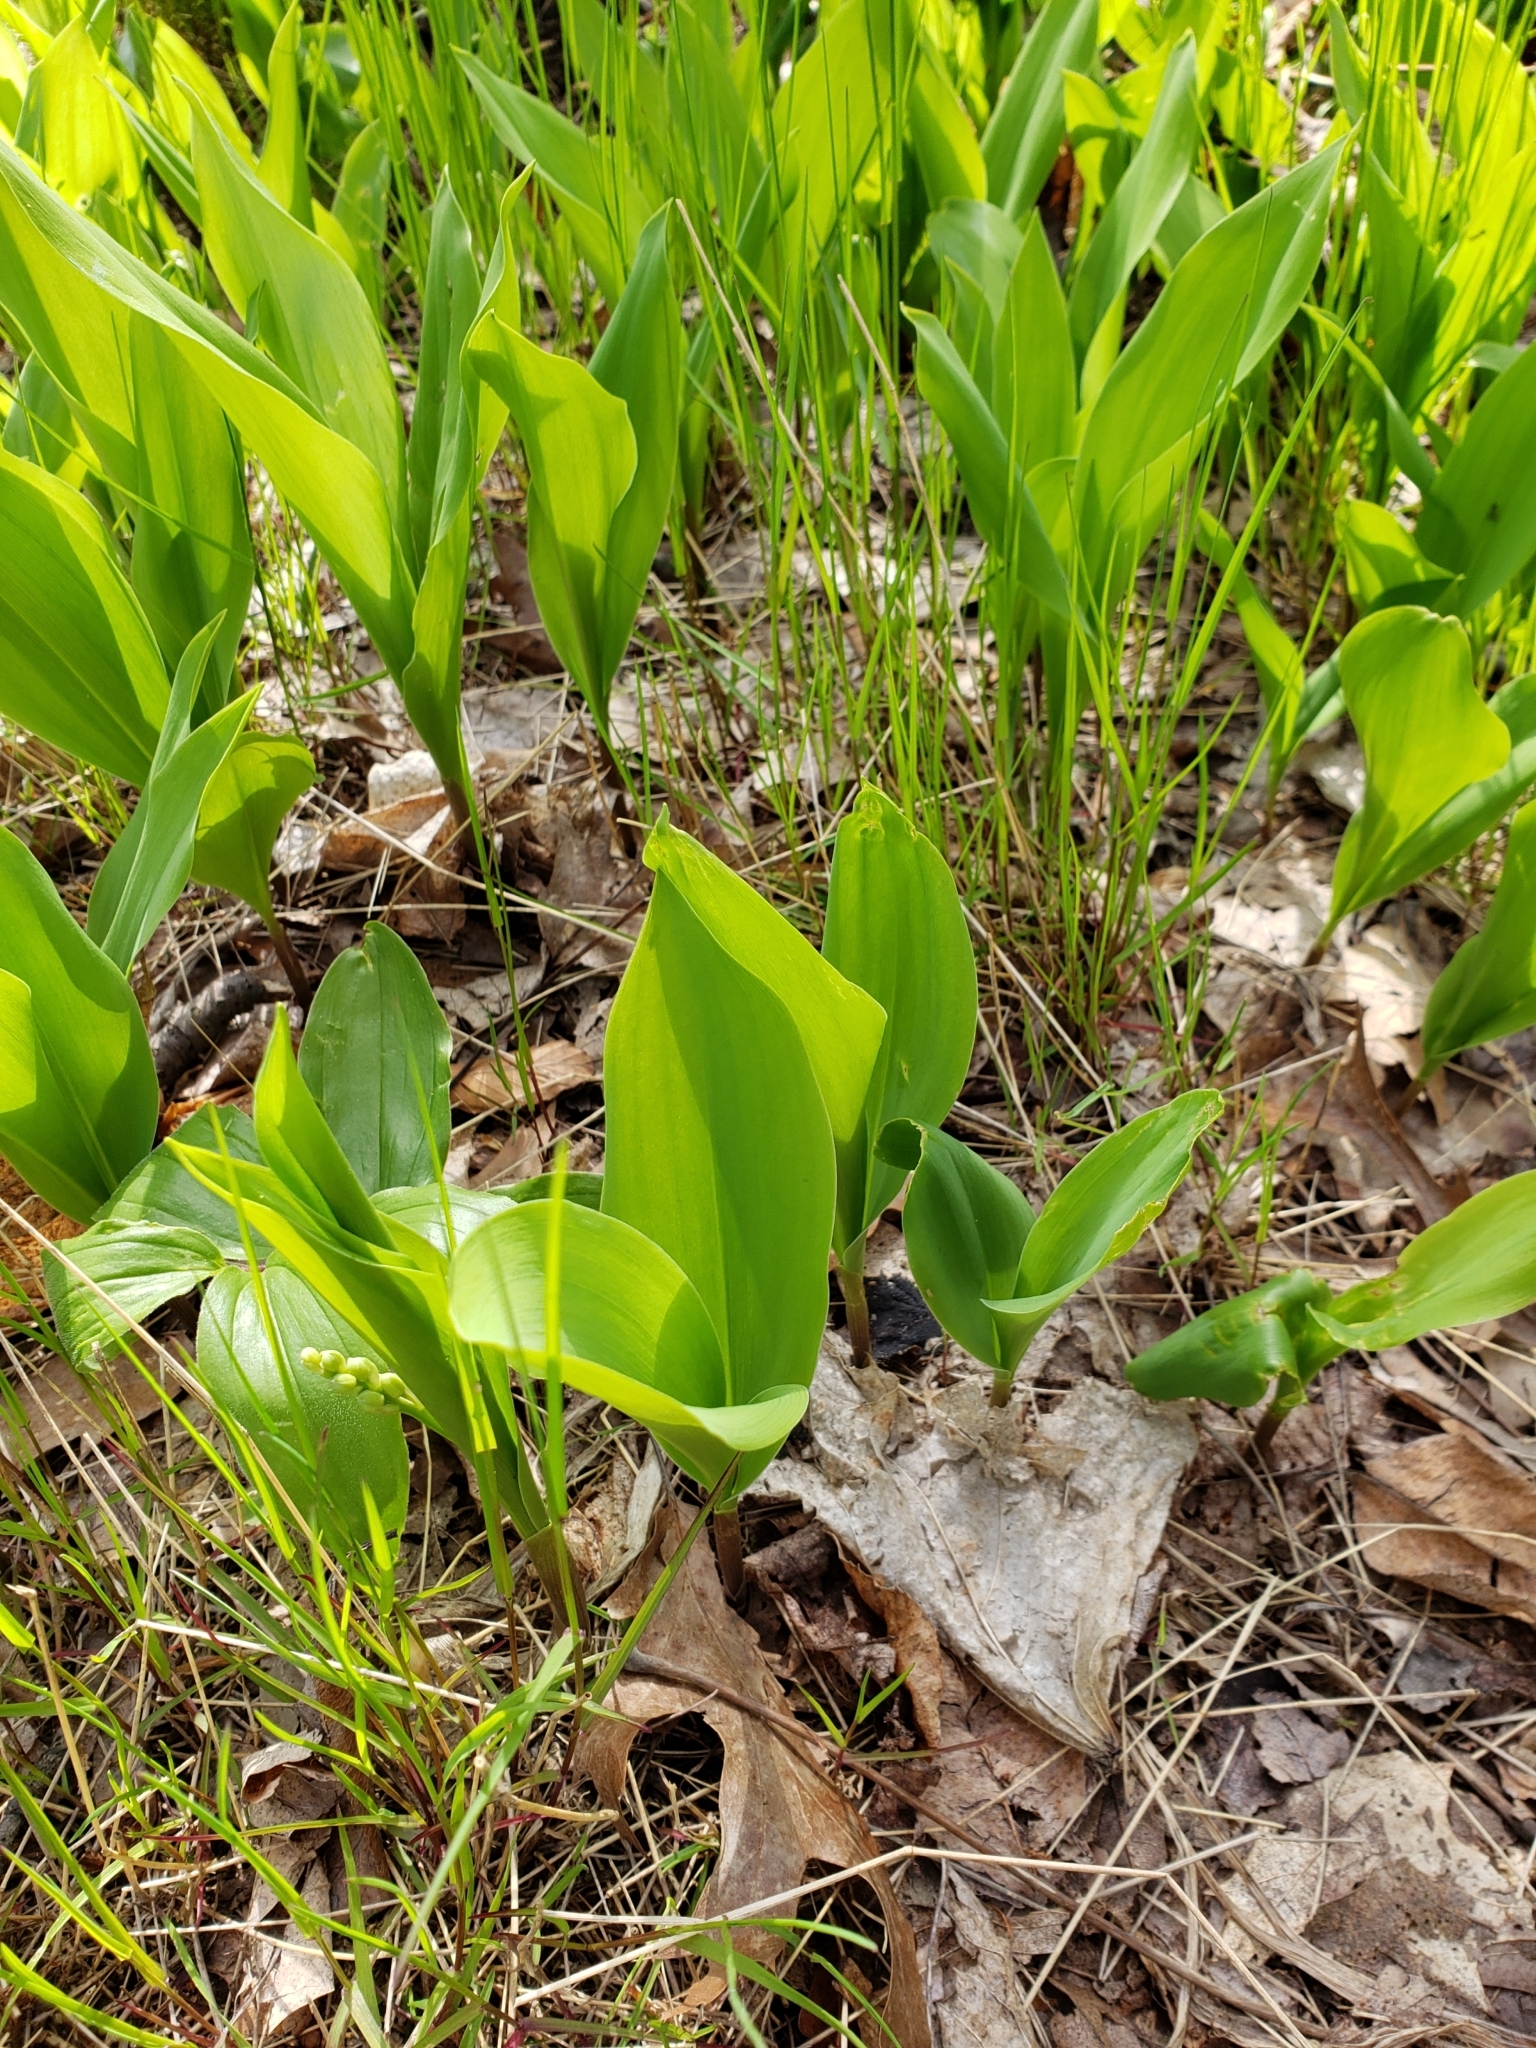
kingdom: Plantae
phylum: Tracheophyta
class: Liliopsida
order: Asparagales
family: Asparagaceae
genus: Convallaria
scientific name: Convallaria majalis
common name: Lily-of-the-valley
